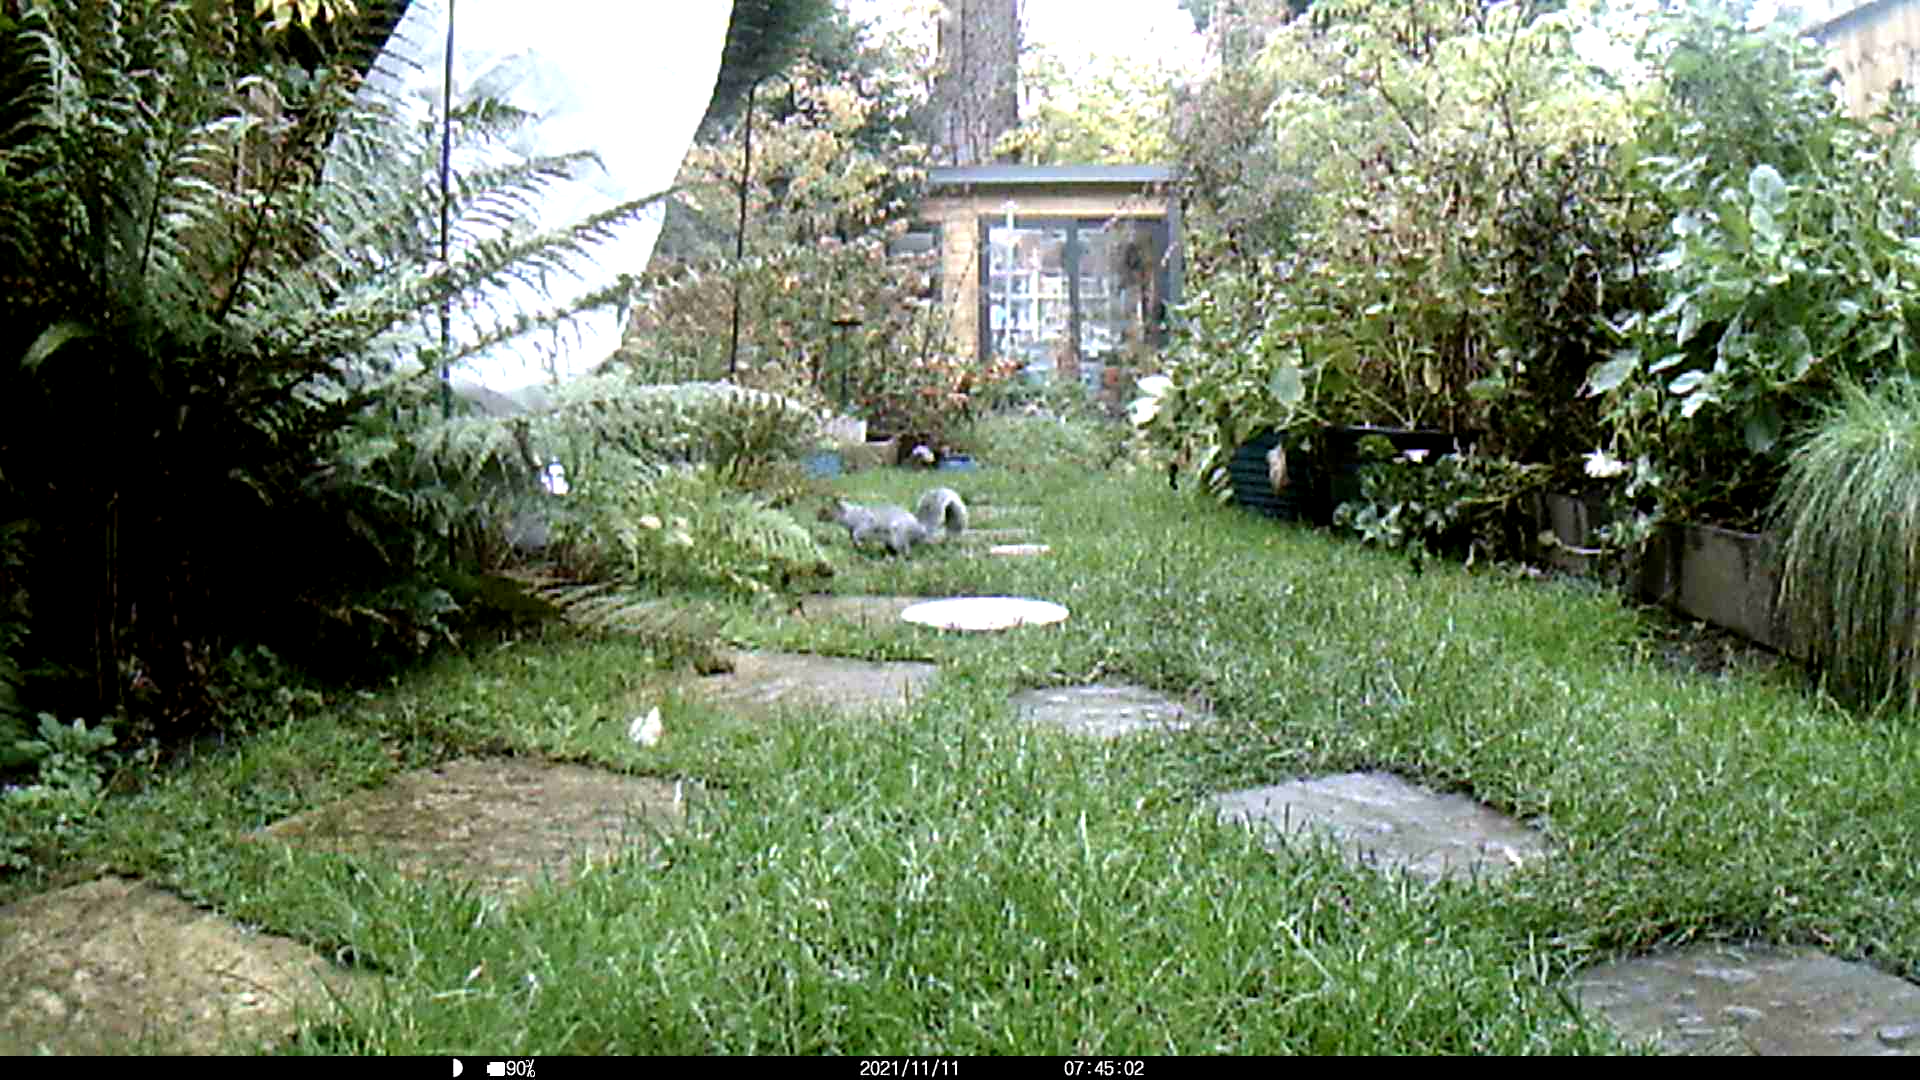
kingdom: Animalia
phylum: Chordata
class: Mammalia
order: Rodentia
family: Sciuridae
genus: Sciurus
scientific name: Sciurus carolinensis
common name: Eastern gray squirrel
